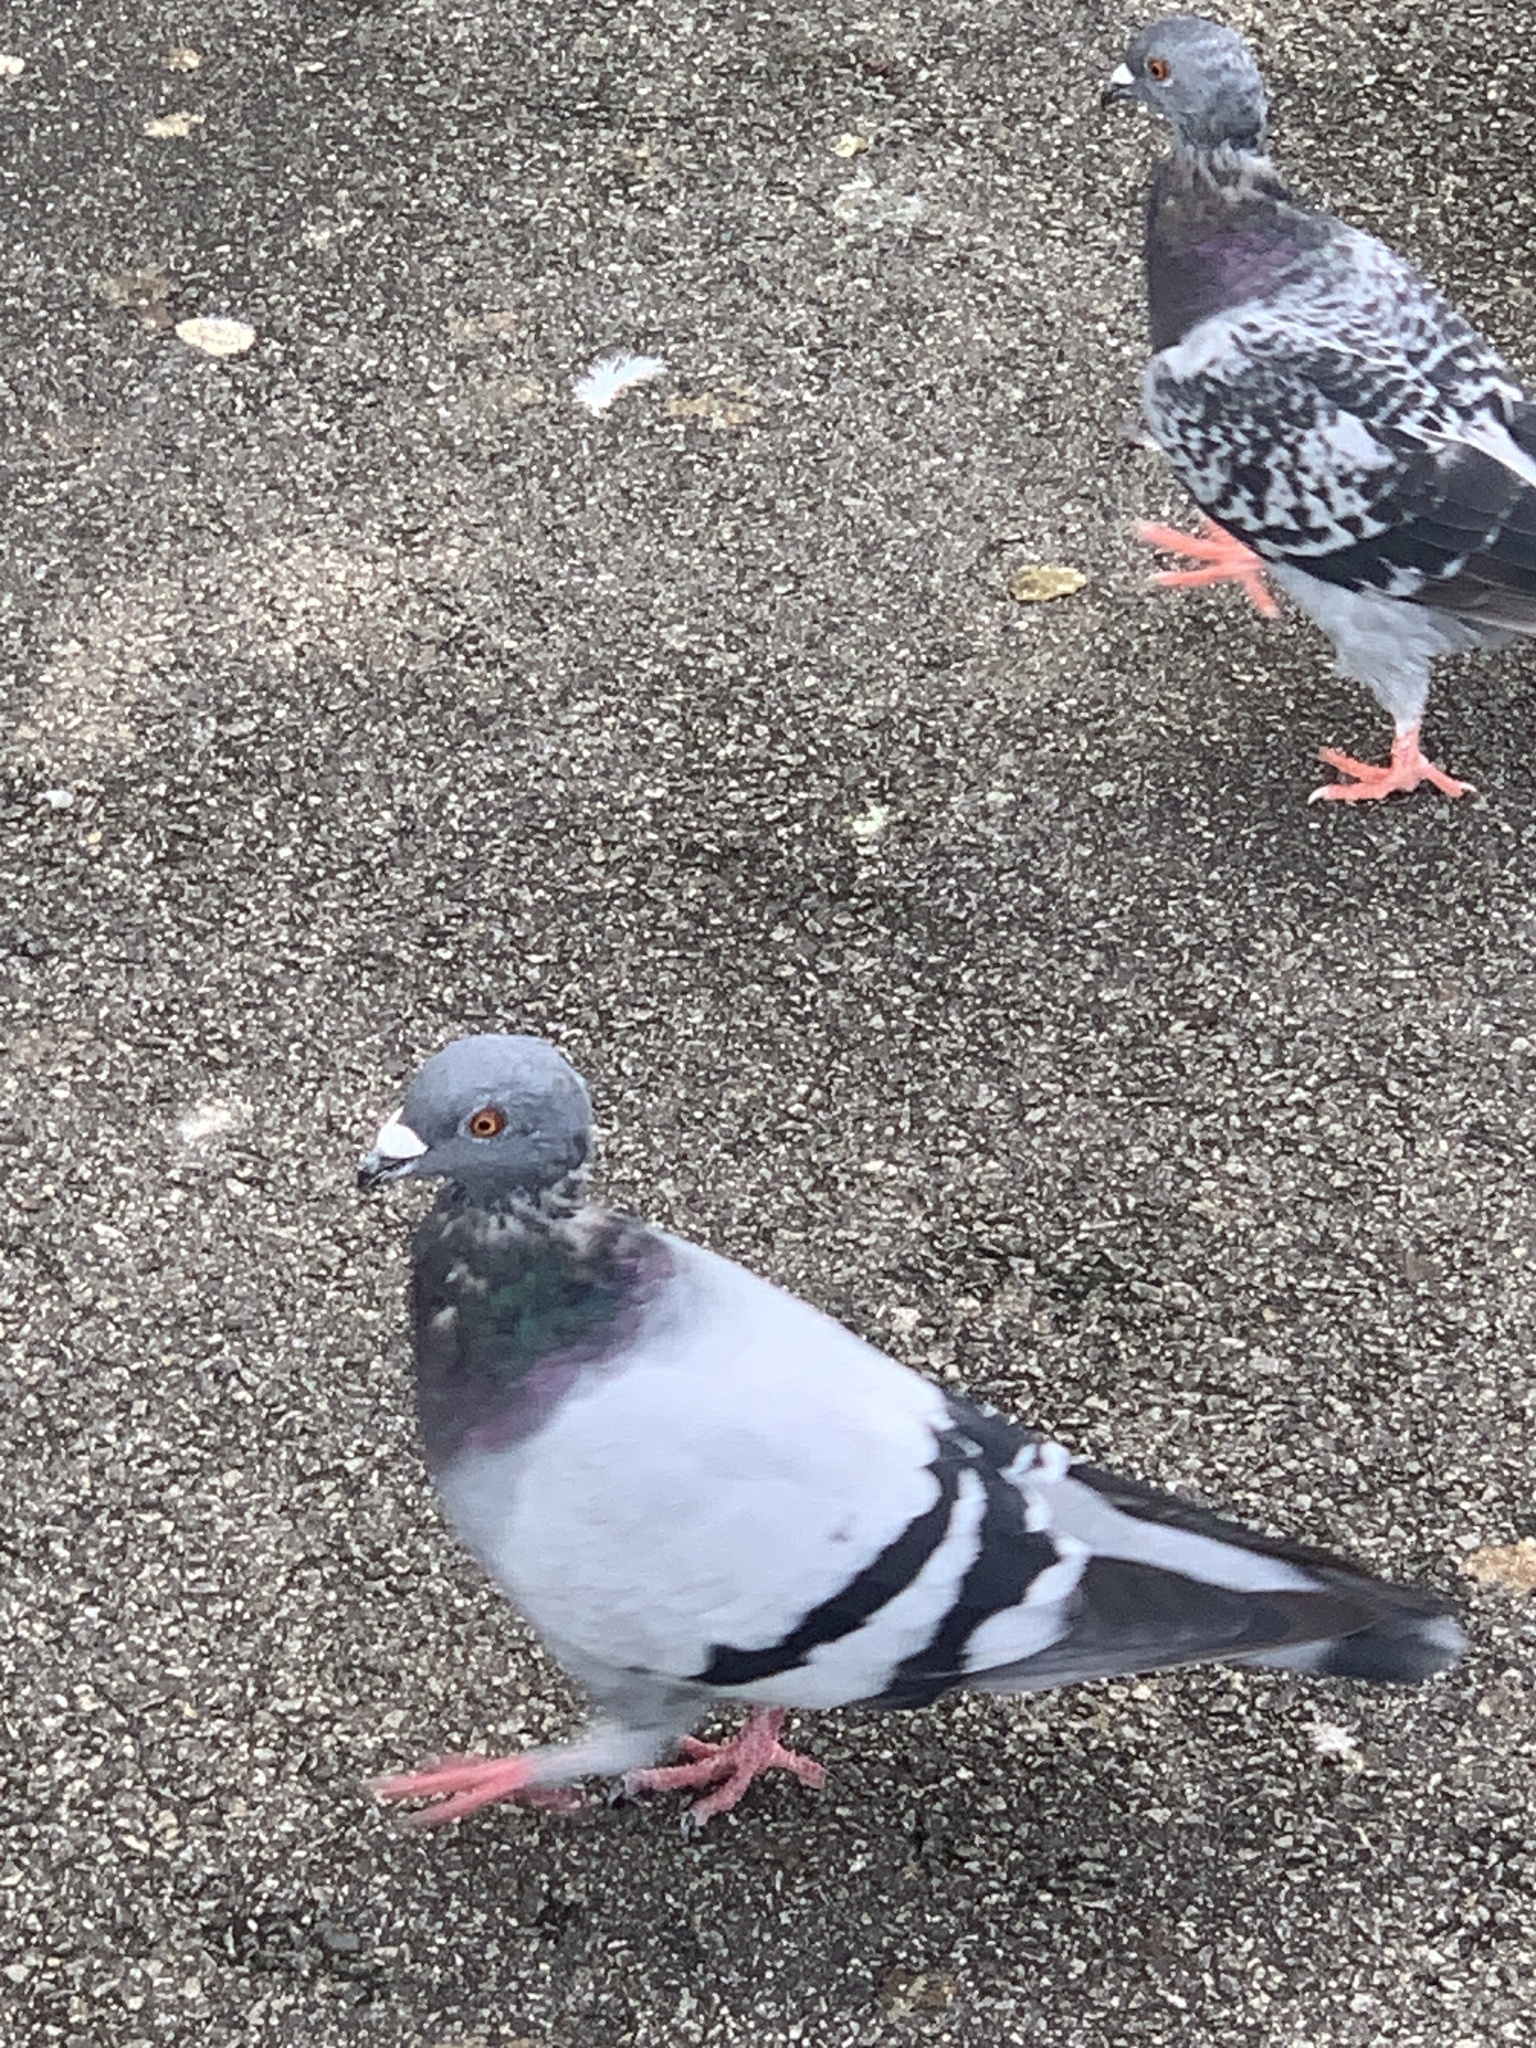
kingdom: Animalia
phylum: Chordata
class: Aves
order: Columbiformes
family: Columbidae
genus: Columba
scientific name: Columba livia
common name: Rock pigeon
